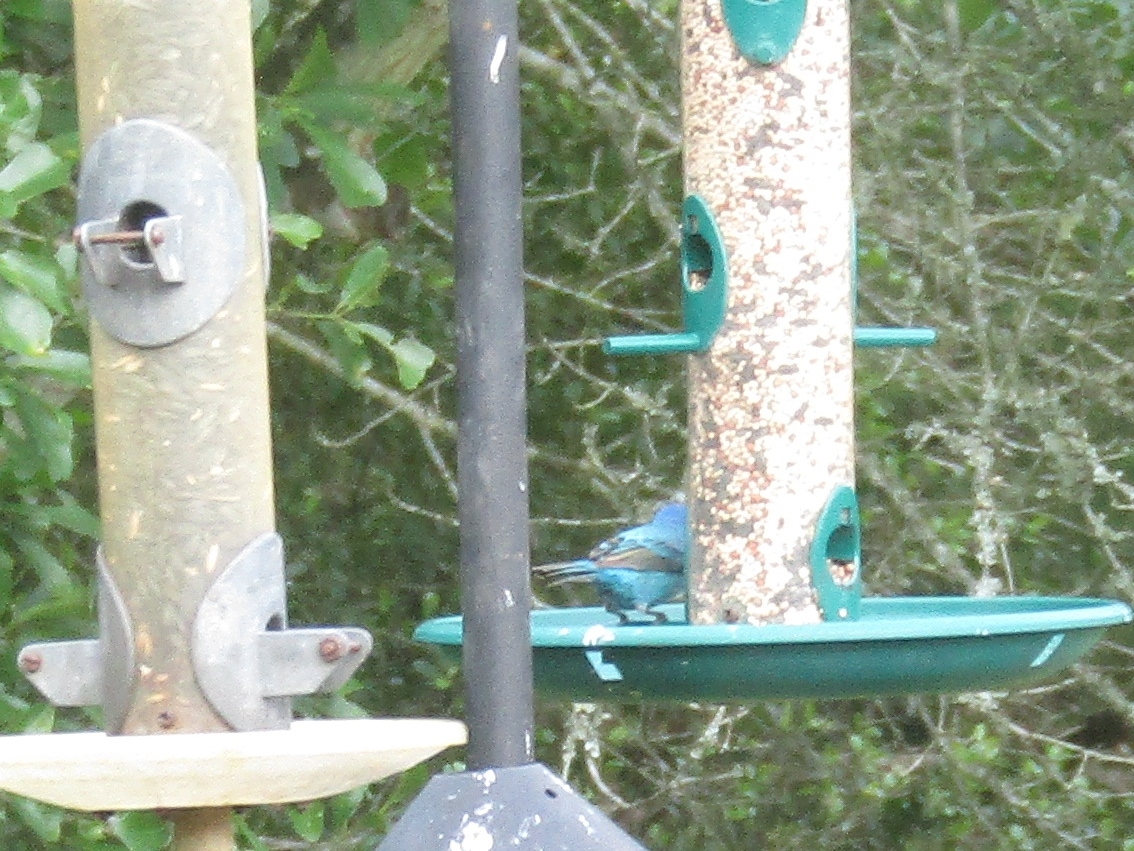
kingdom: Animalia
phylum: Chordata
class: Aves
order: Passeriformes
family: Cardinalidae
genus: Passerina
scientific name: Passerina cyanea
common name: Indigo bunting
